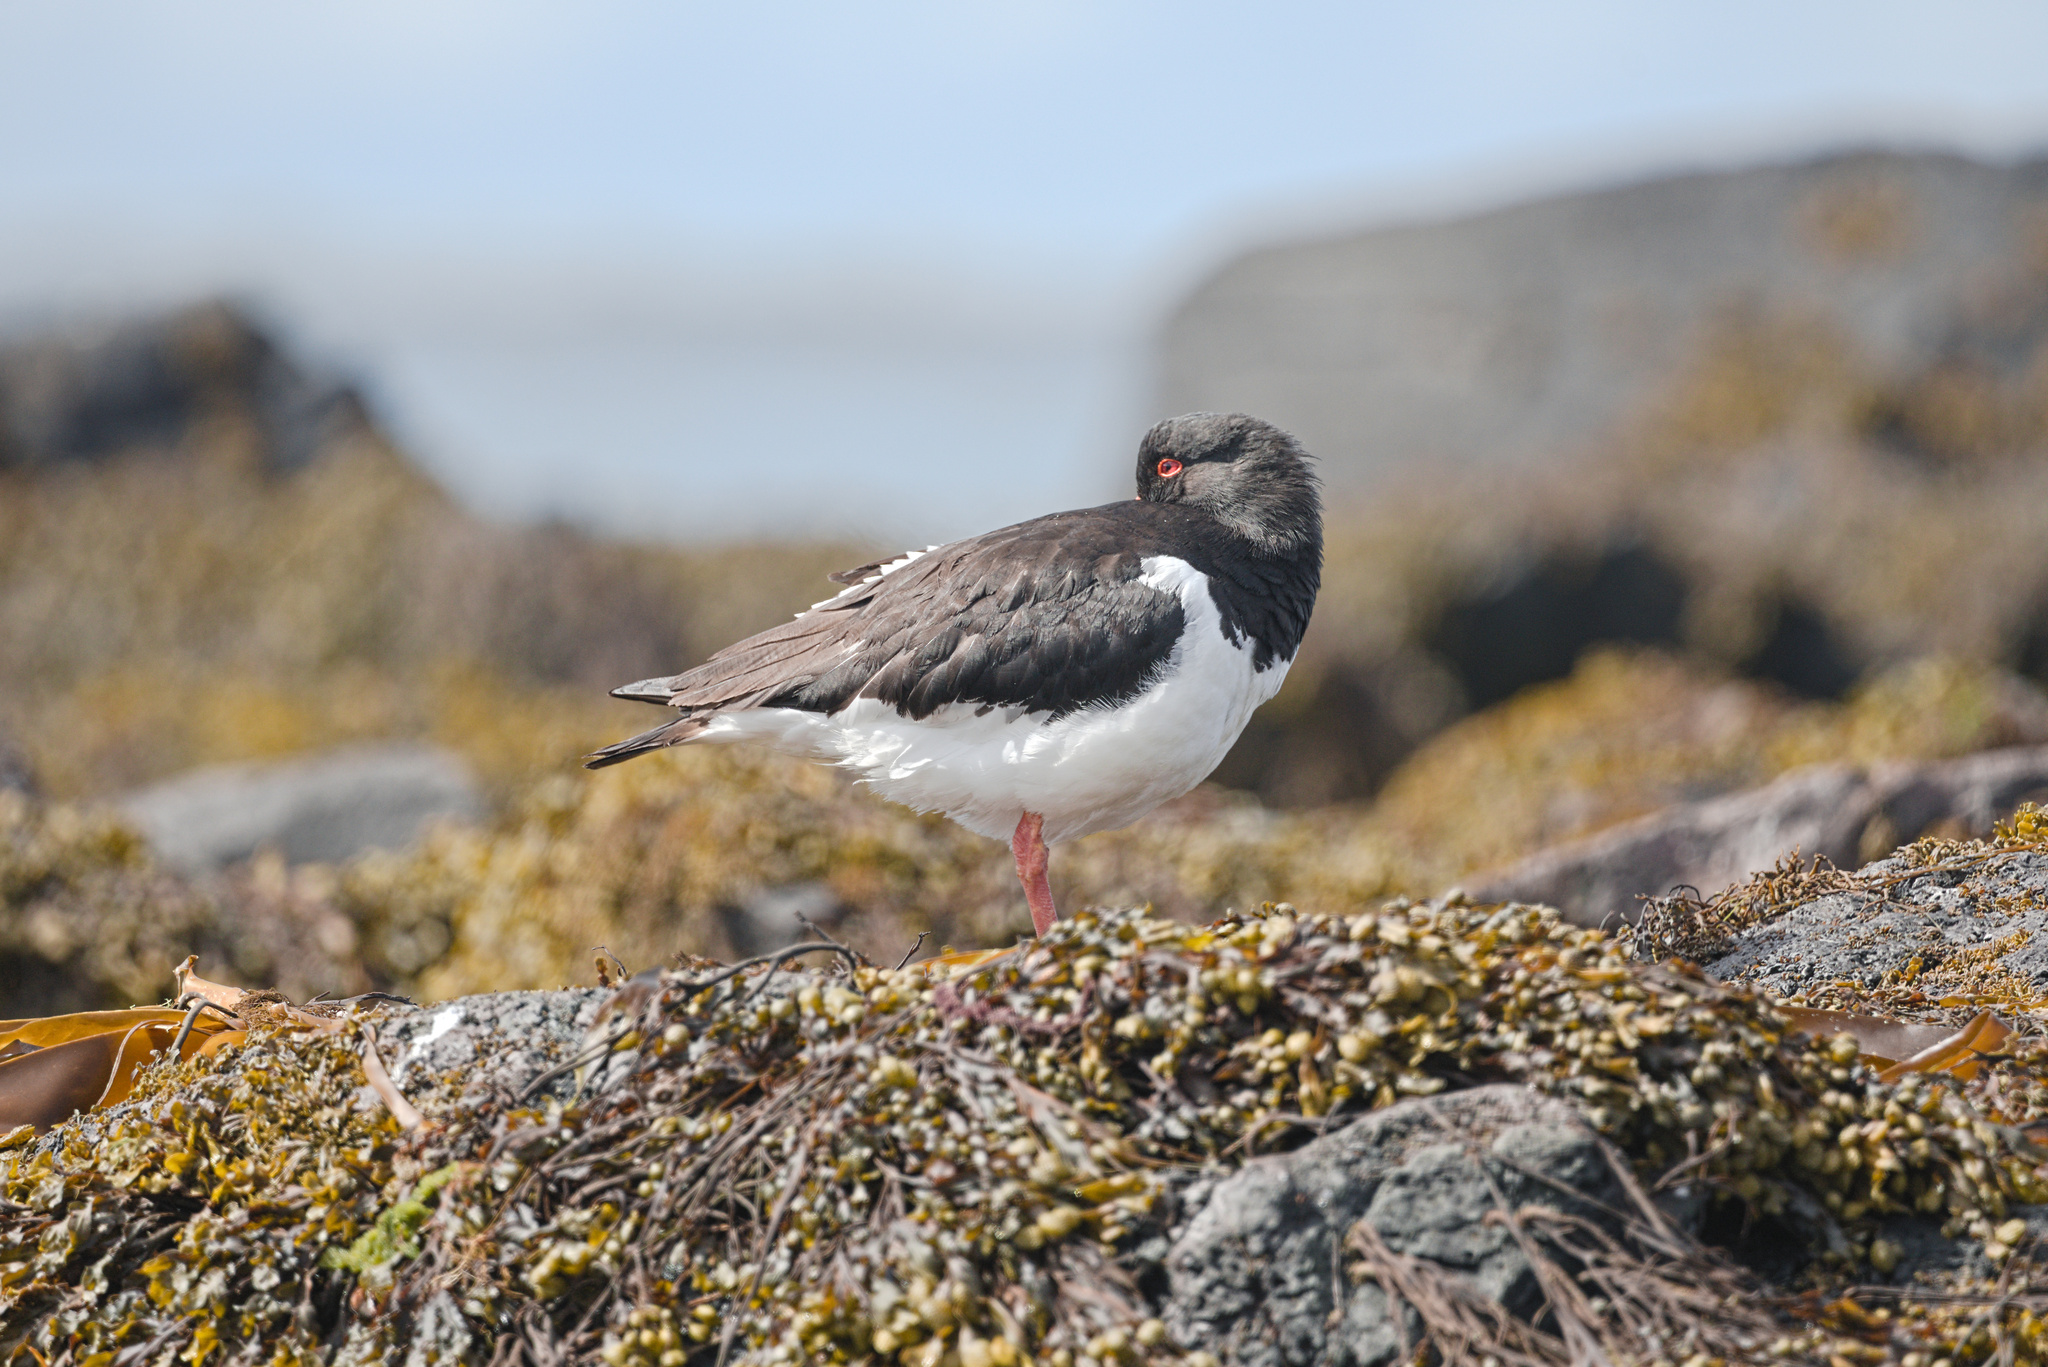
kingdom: Animalia
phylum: Chordata
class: Aves
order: Charadriiformes
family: Haematopodidae
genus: Haematopus
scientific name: Haematopus ostralegus
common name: Eurasian oystercatcher
